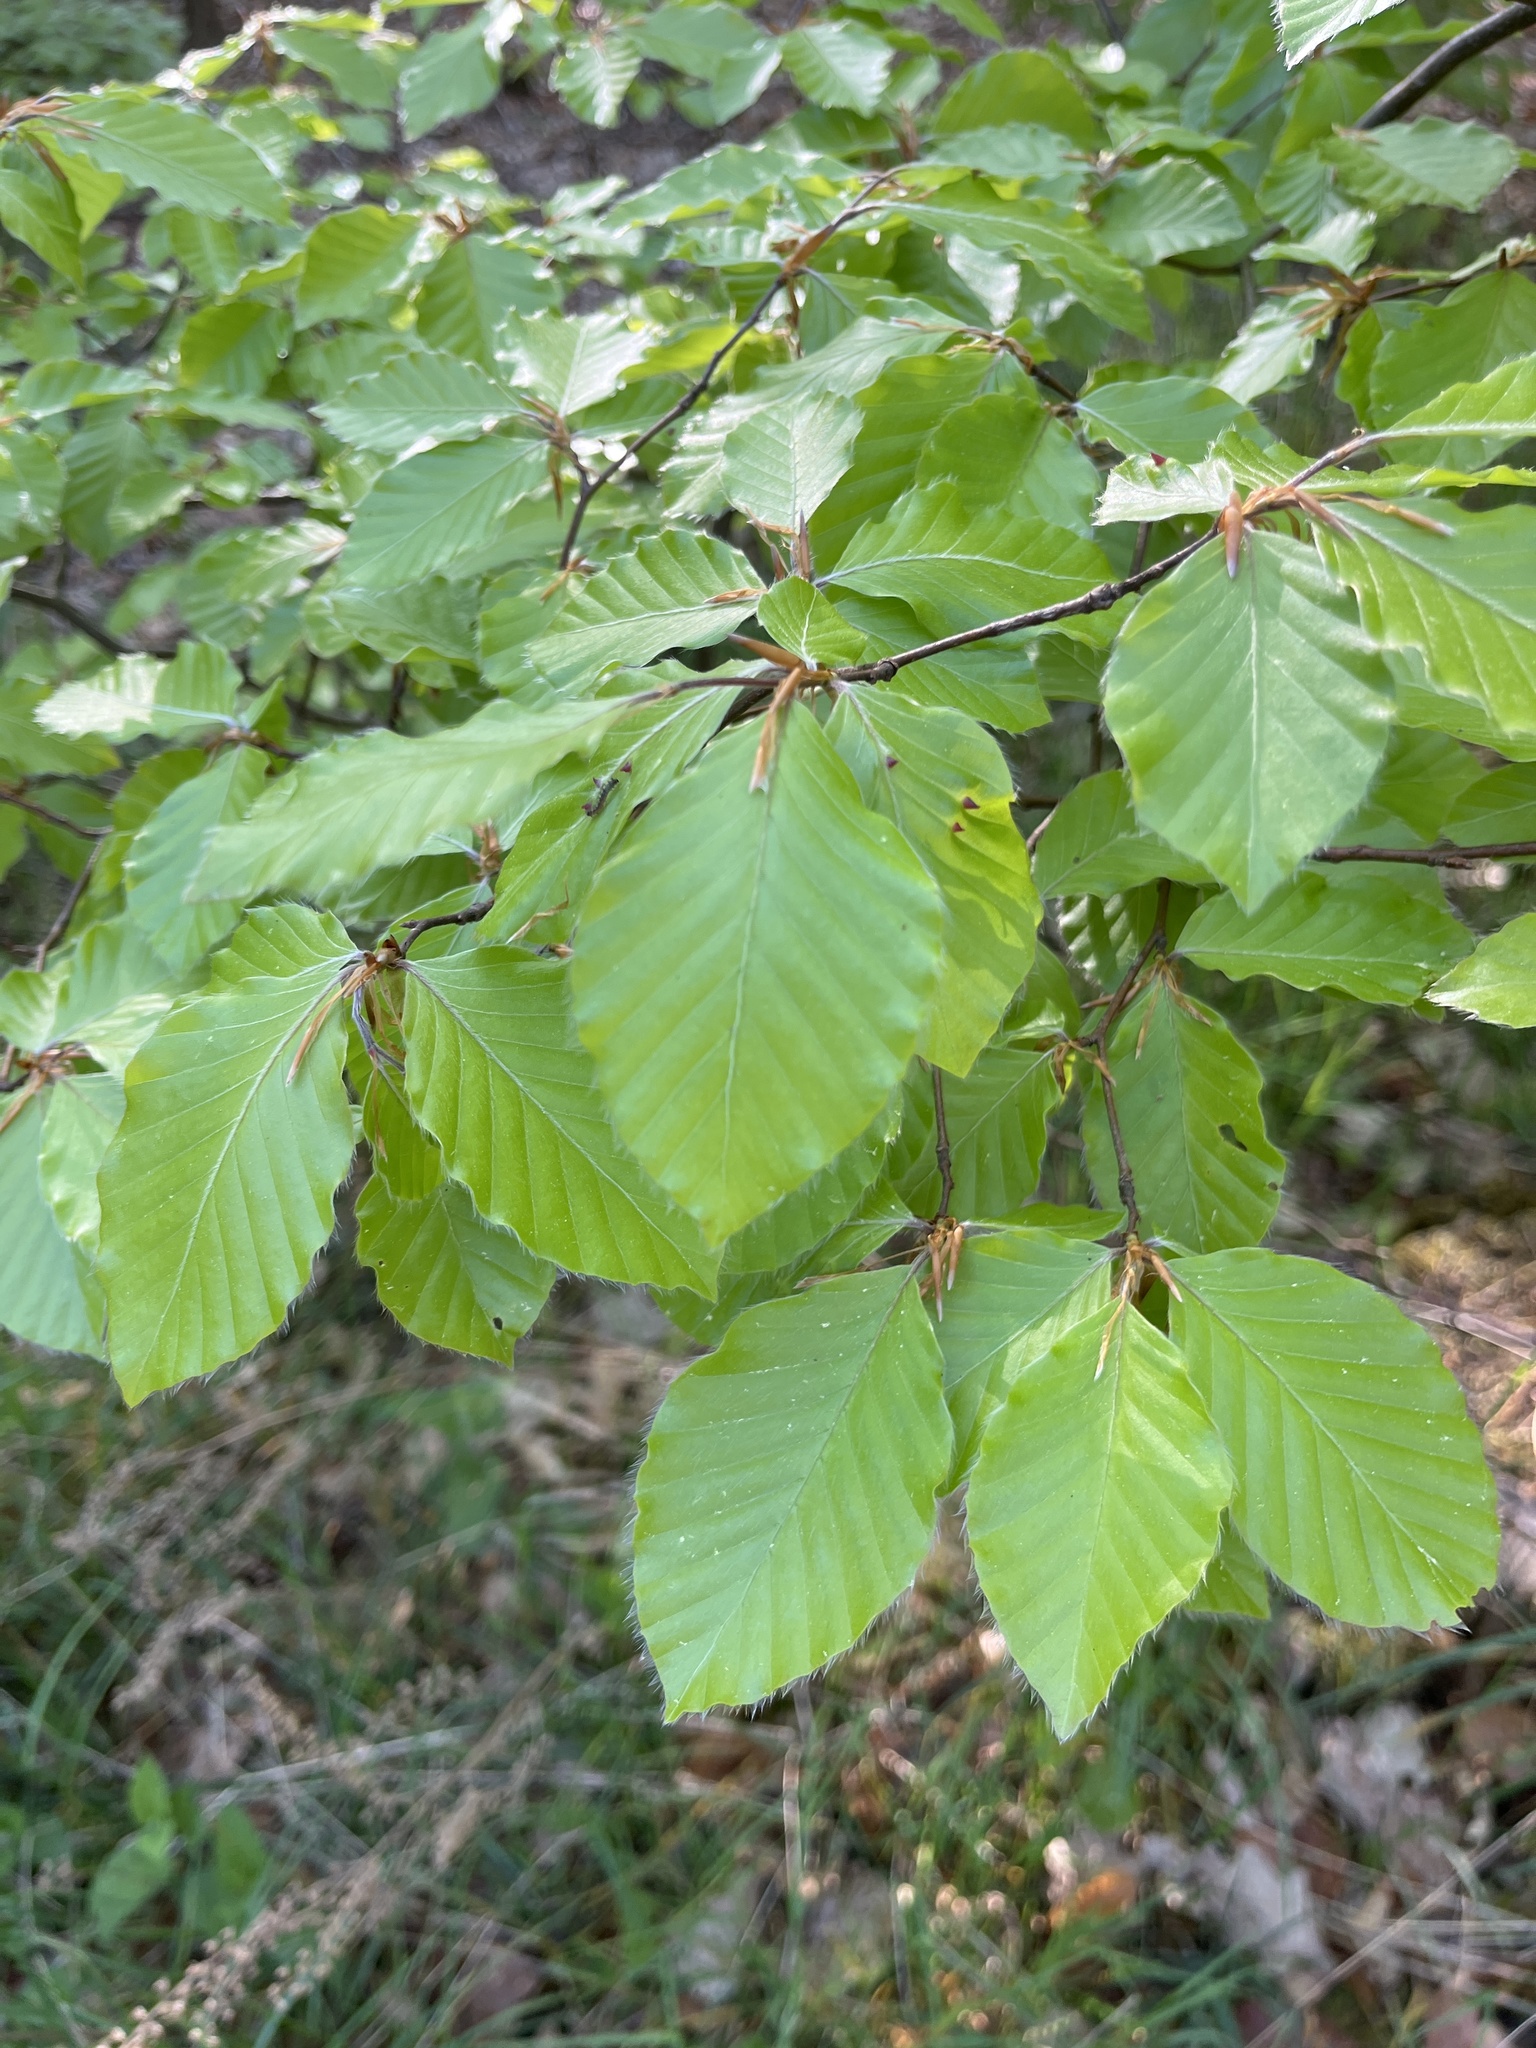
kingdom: Plantae
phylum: Tracheophyta
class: Magnoliopsida
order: Fagales
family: Fagaceae
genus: Fagus
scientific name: Fagus sylvatica
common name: Beech
